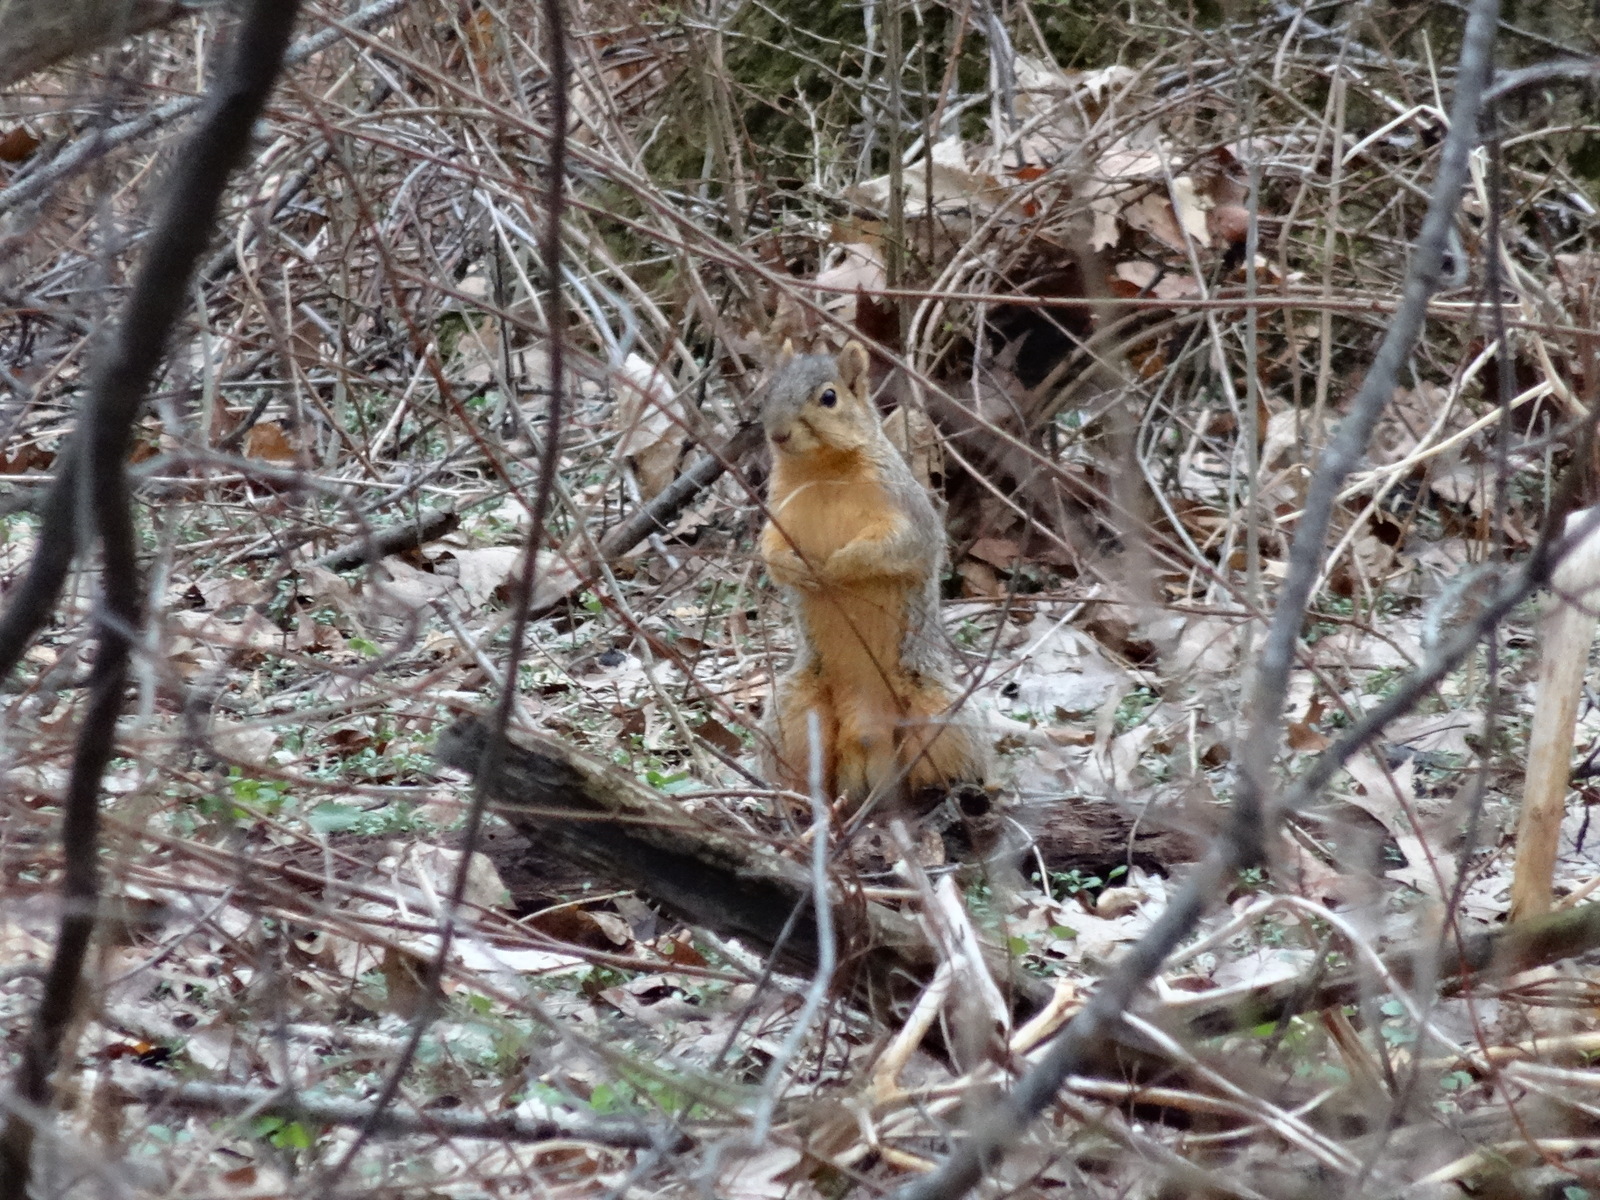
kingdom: Animalia
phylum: Chordata
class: Mammalia
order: Rodentia
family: Sciuridae
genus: Sciurus
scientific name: Sciurus niger
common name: Fox squirrel
